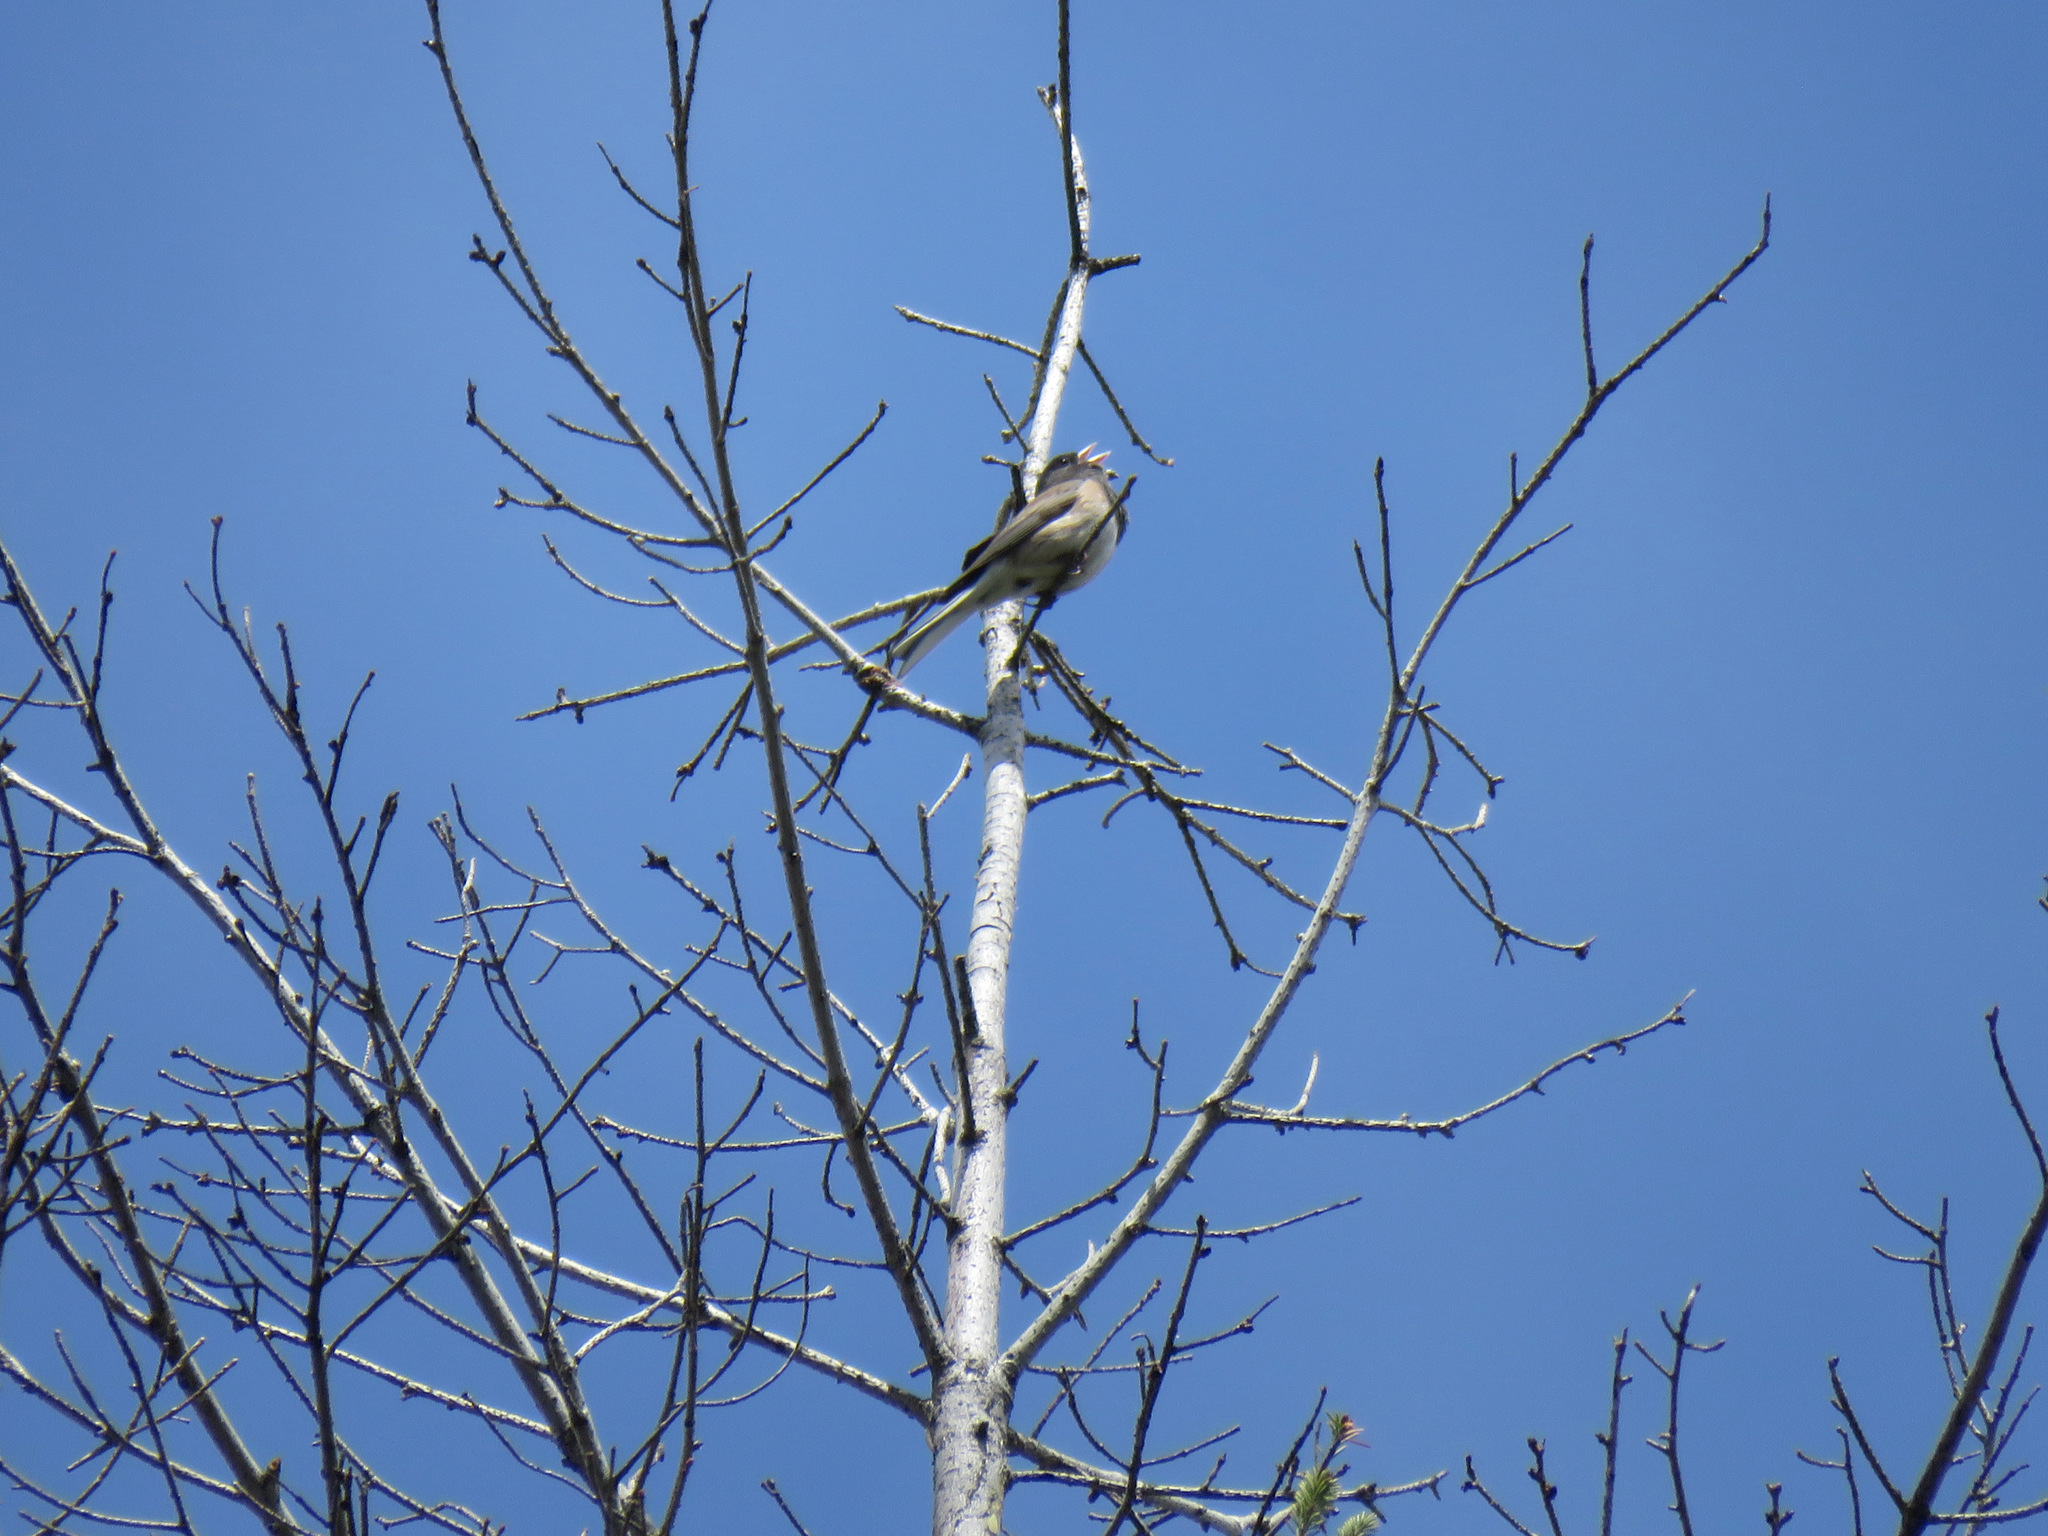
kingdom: Animalia
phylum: Chordata
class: Aves
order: Passeriformes
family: Passerellidae
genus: Junco
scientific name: Junco hyemalis
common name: Dark-eyed junco
